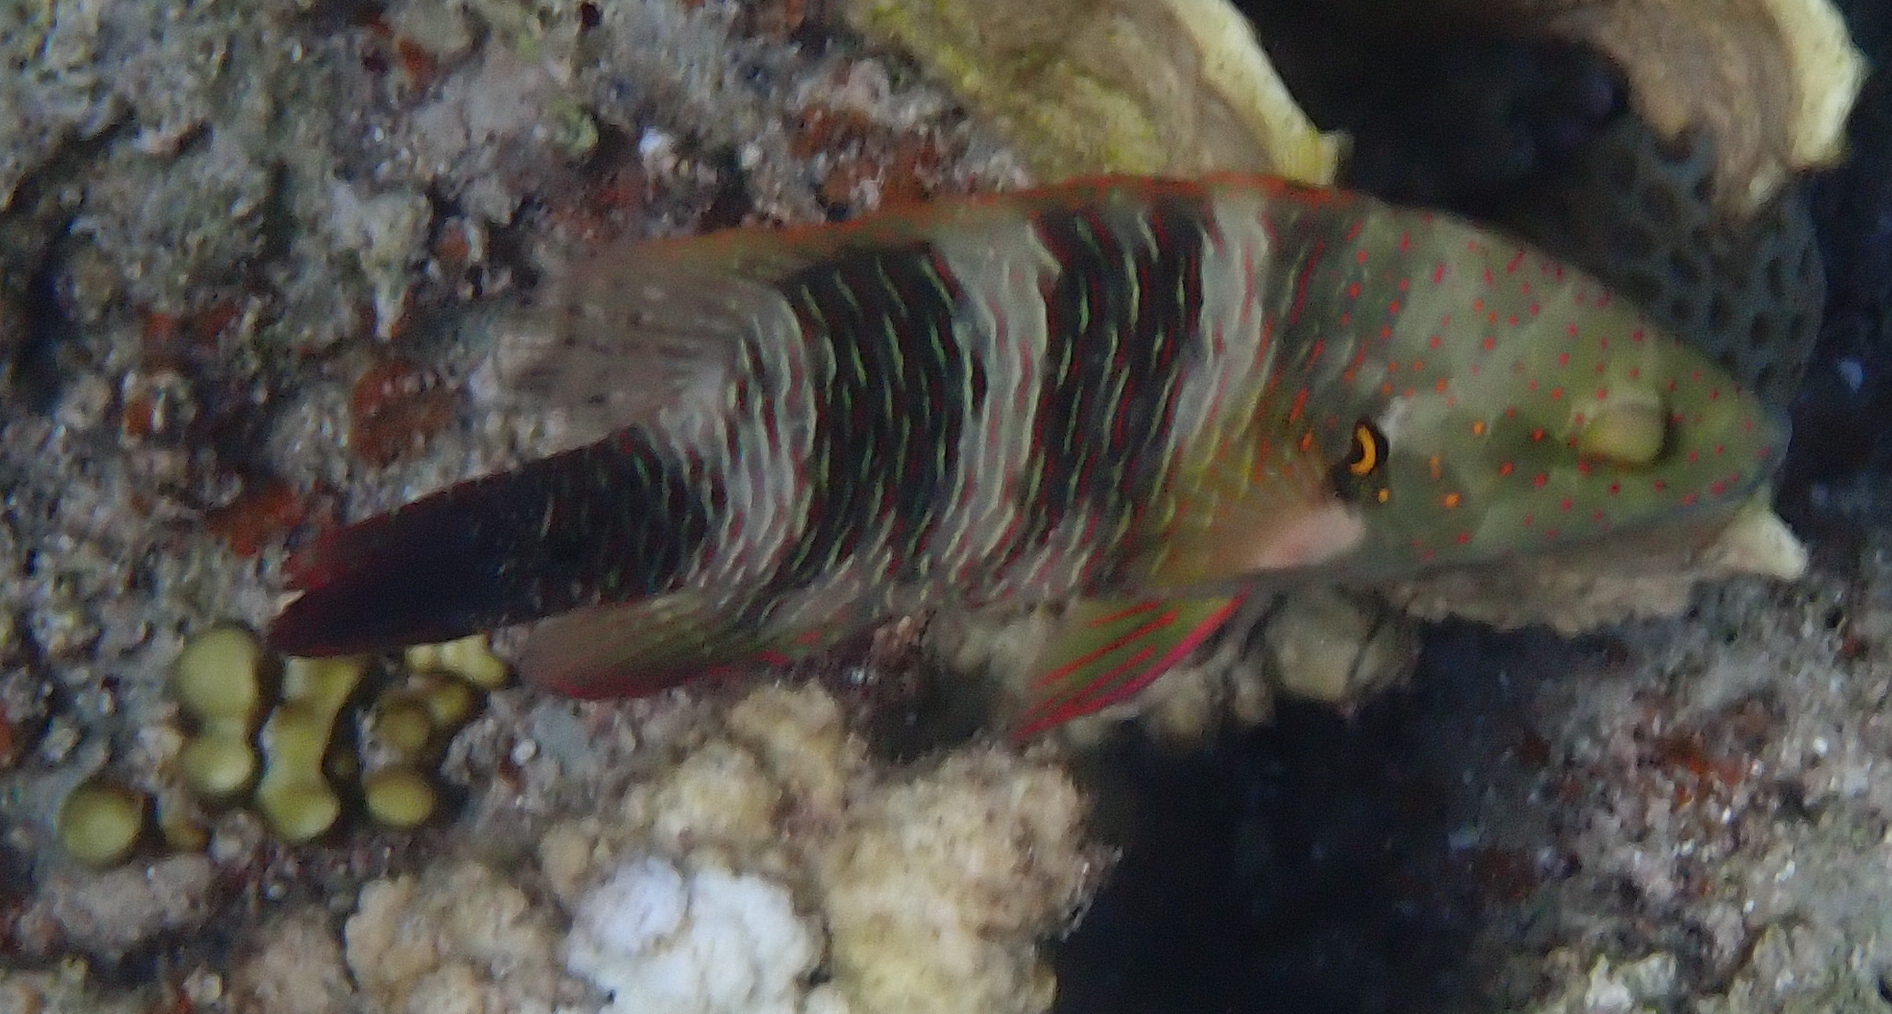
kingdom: Animalia
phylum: Chordata
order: Perciformes
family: Labridae
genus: Cheilinus
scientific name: Cheilinus lunulatus
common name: Broomtail wrasse
